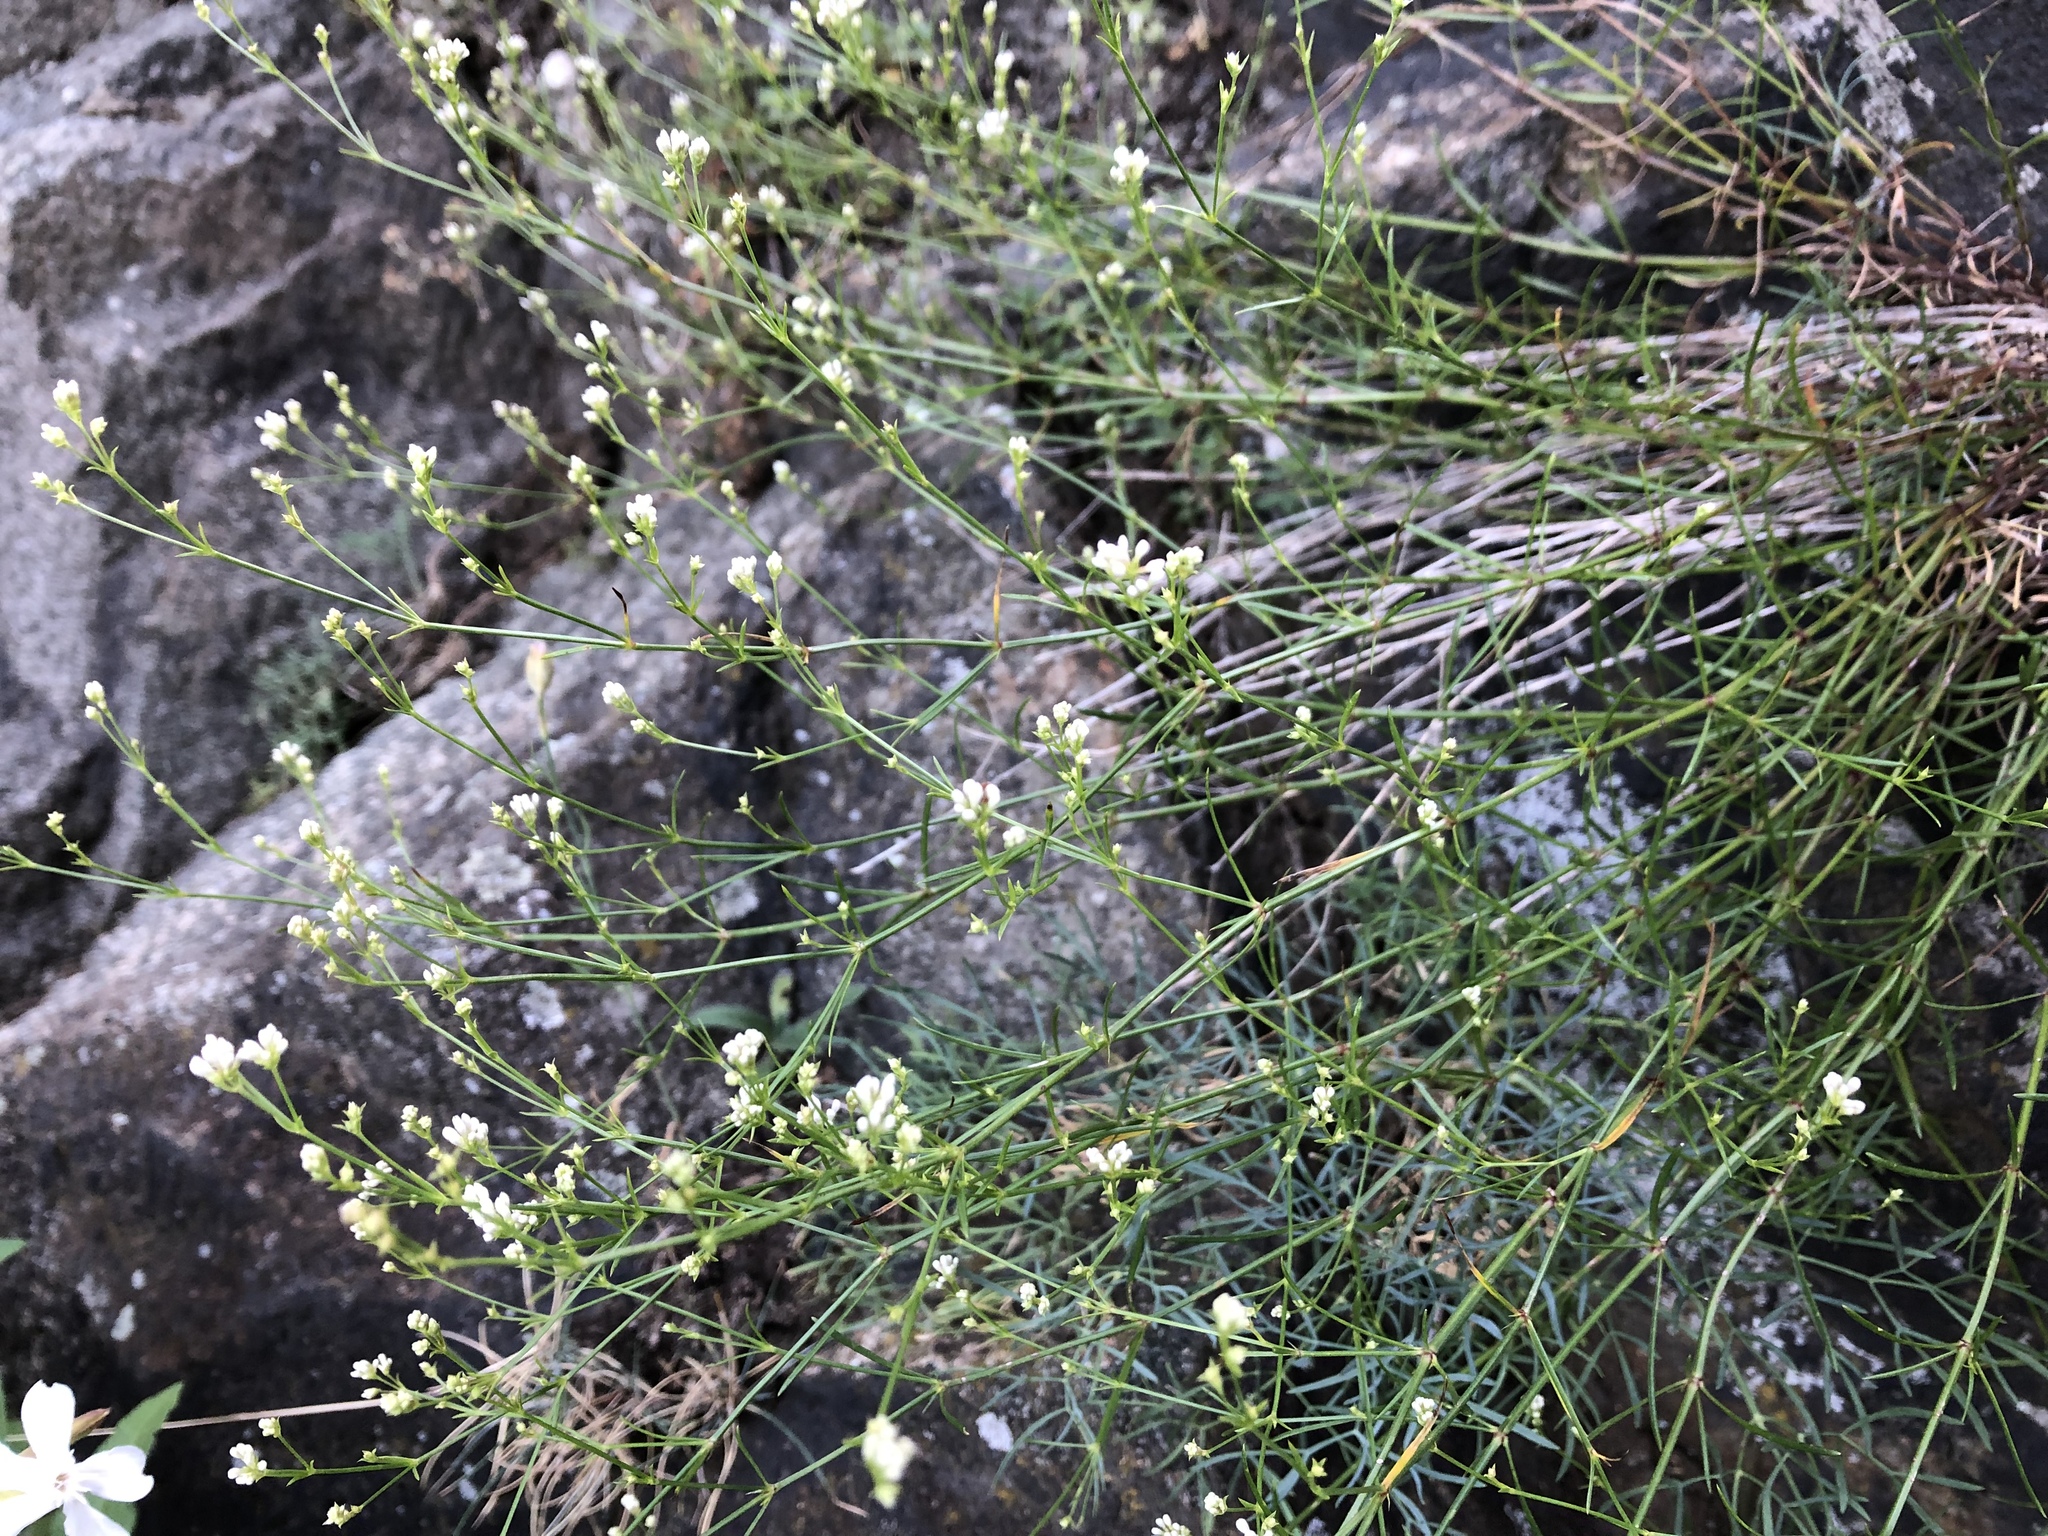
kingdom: Plantae
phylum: Tracheophyta
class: Magnoliopsida
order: Gentianales
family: Rubiaceae
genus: Cynanchica
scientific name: Cynanchica pyrenaica
